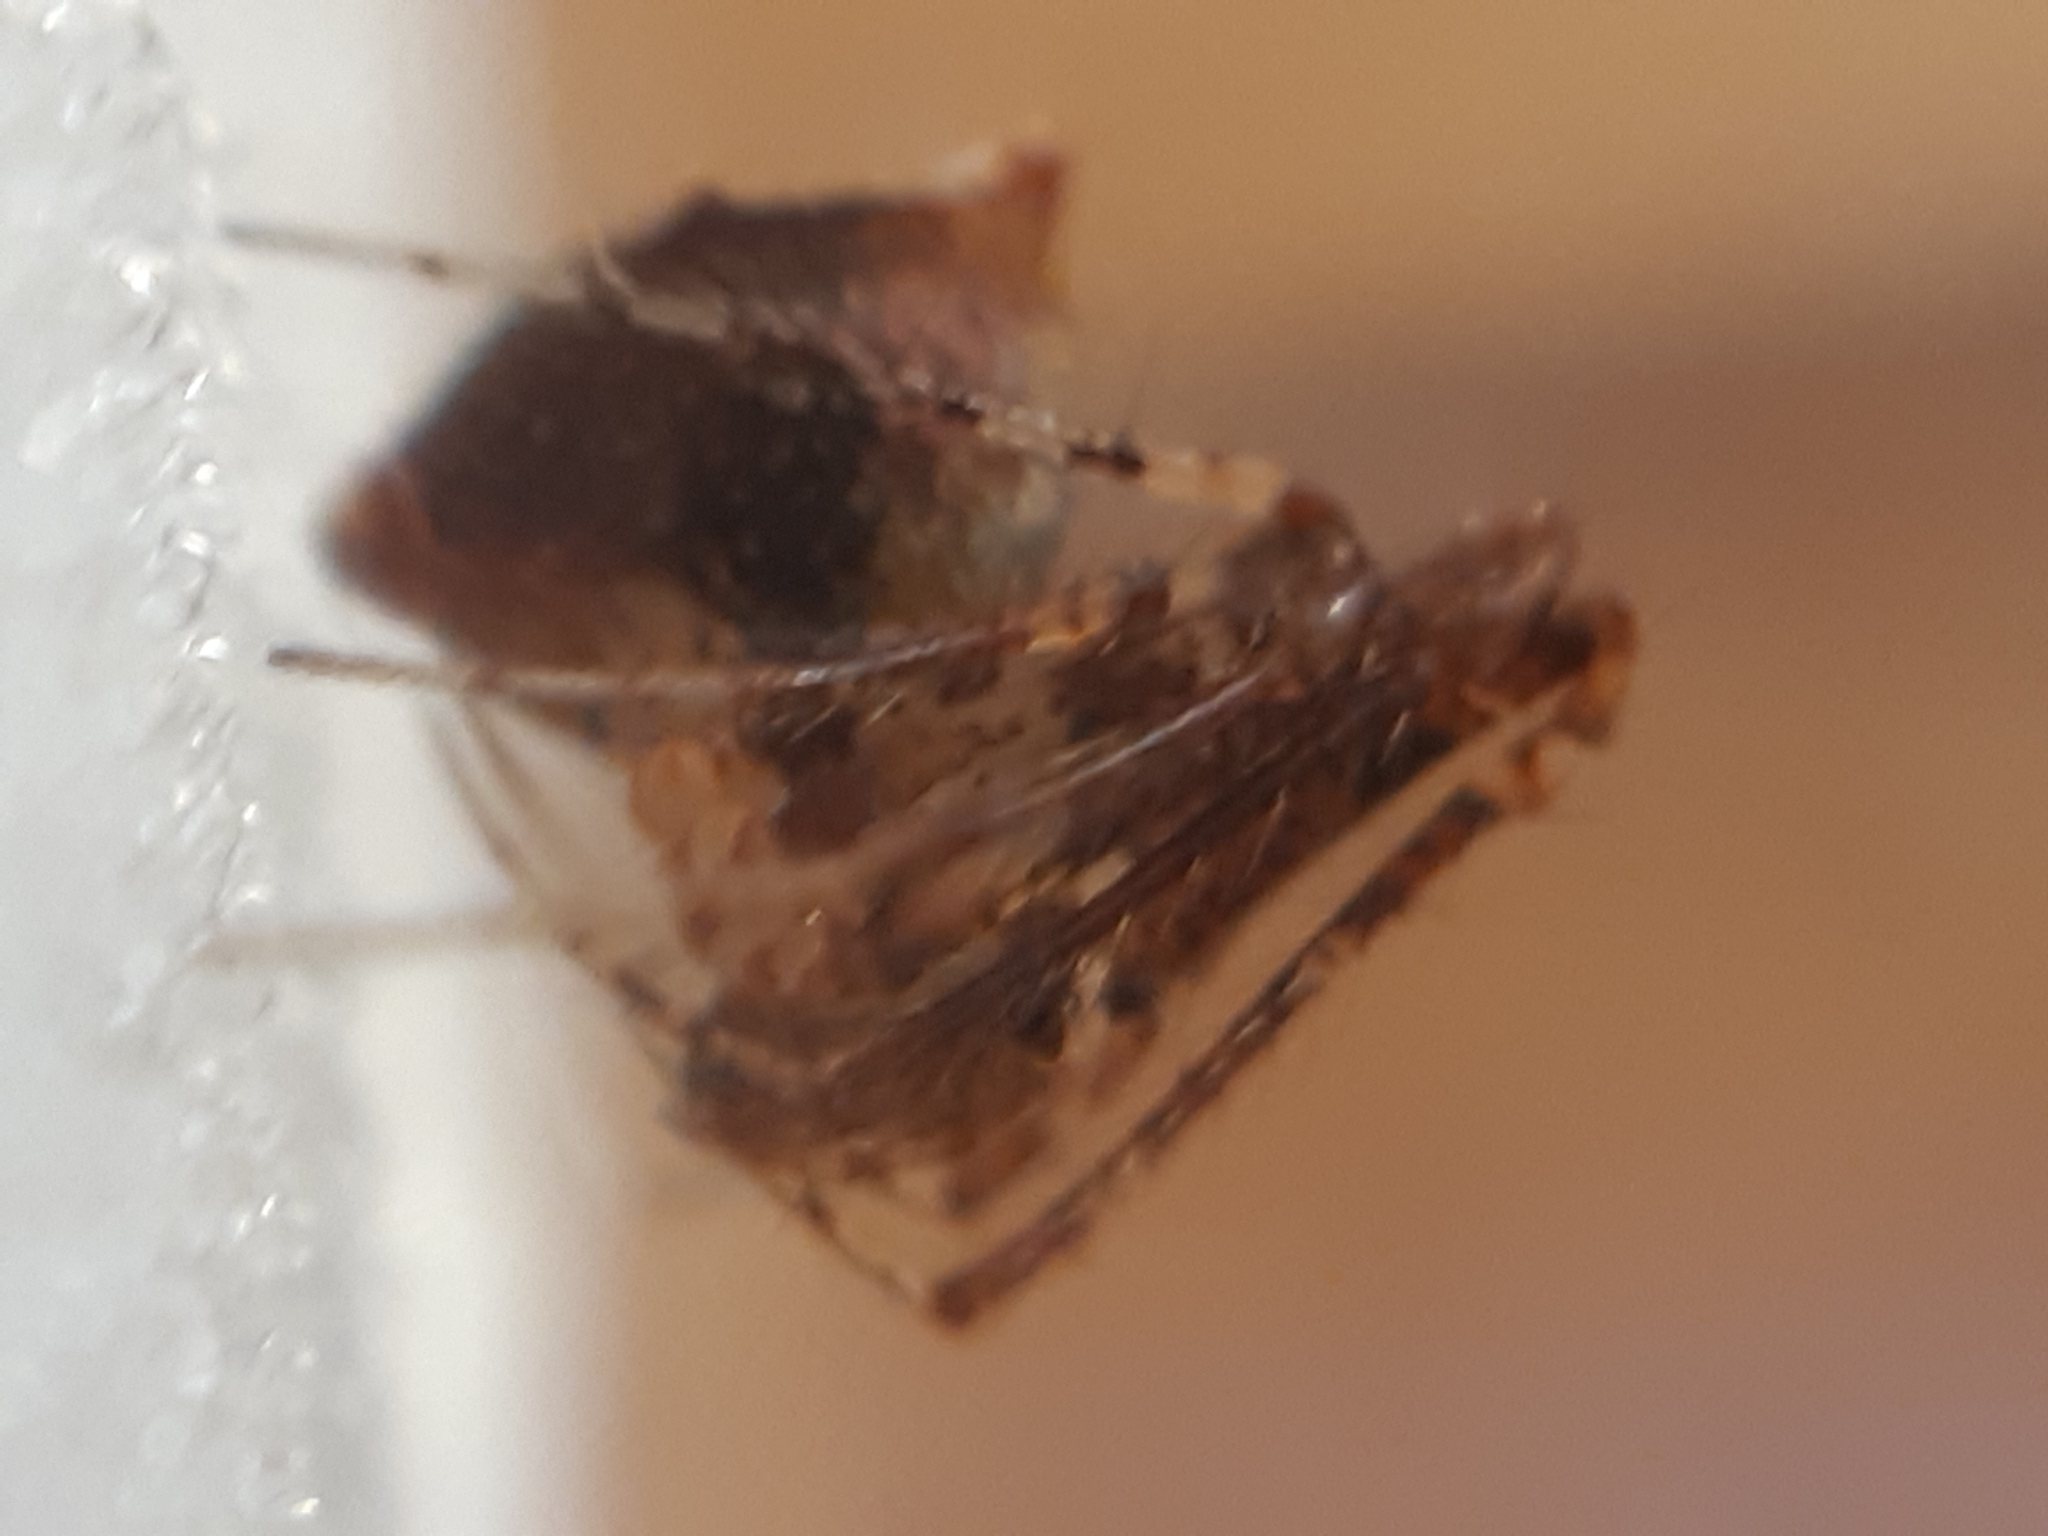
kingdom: Animalia
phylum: Arthropoda
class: Arachnida
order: Araneae
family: Mimetidae
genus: Ero
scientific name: Ero tuberculata
